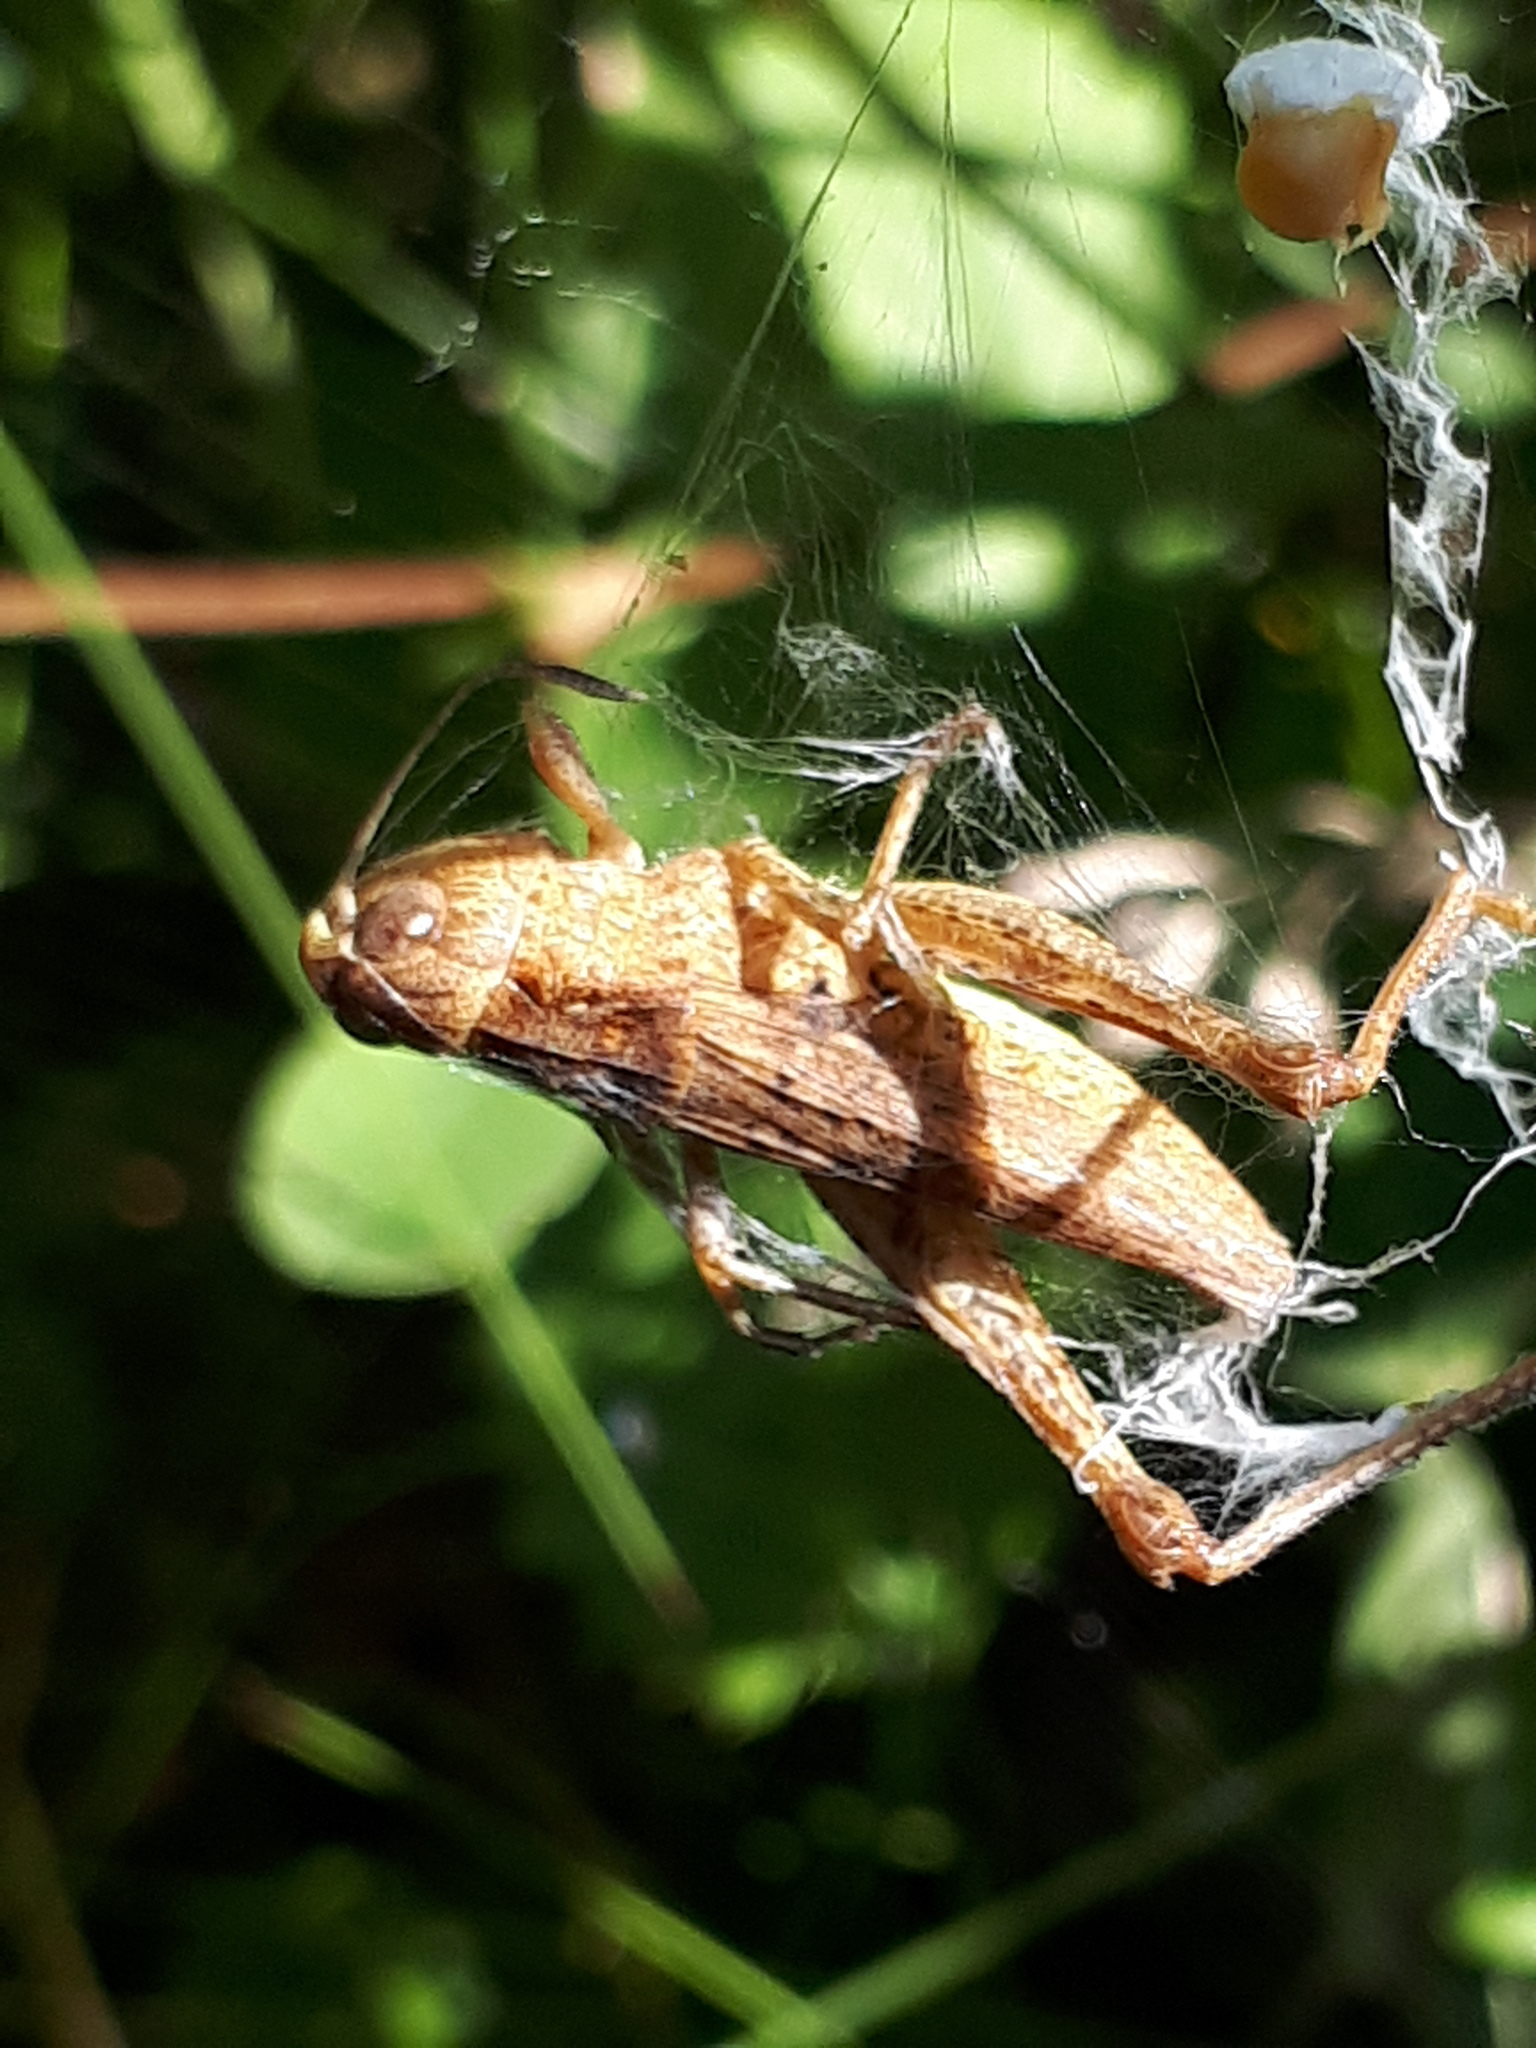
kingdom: Animalia
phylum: Arthropoda
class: Insecta
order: Orthoptera
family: Acrididae
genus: Gomphocerippus
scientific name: Gomphocerippus rufus
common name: Rufous grasshopper
